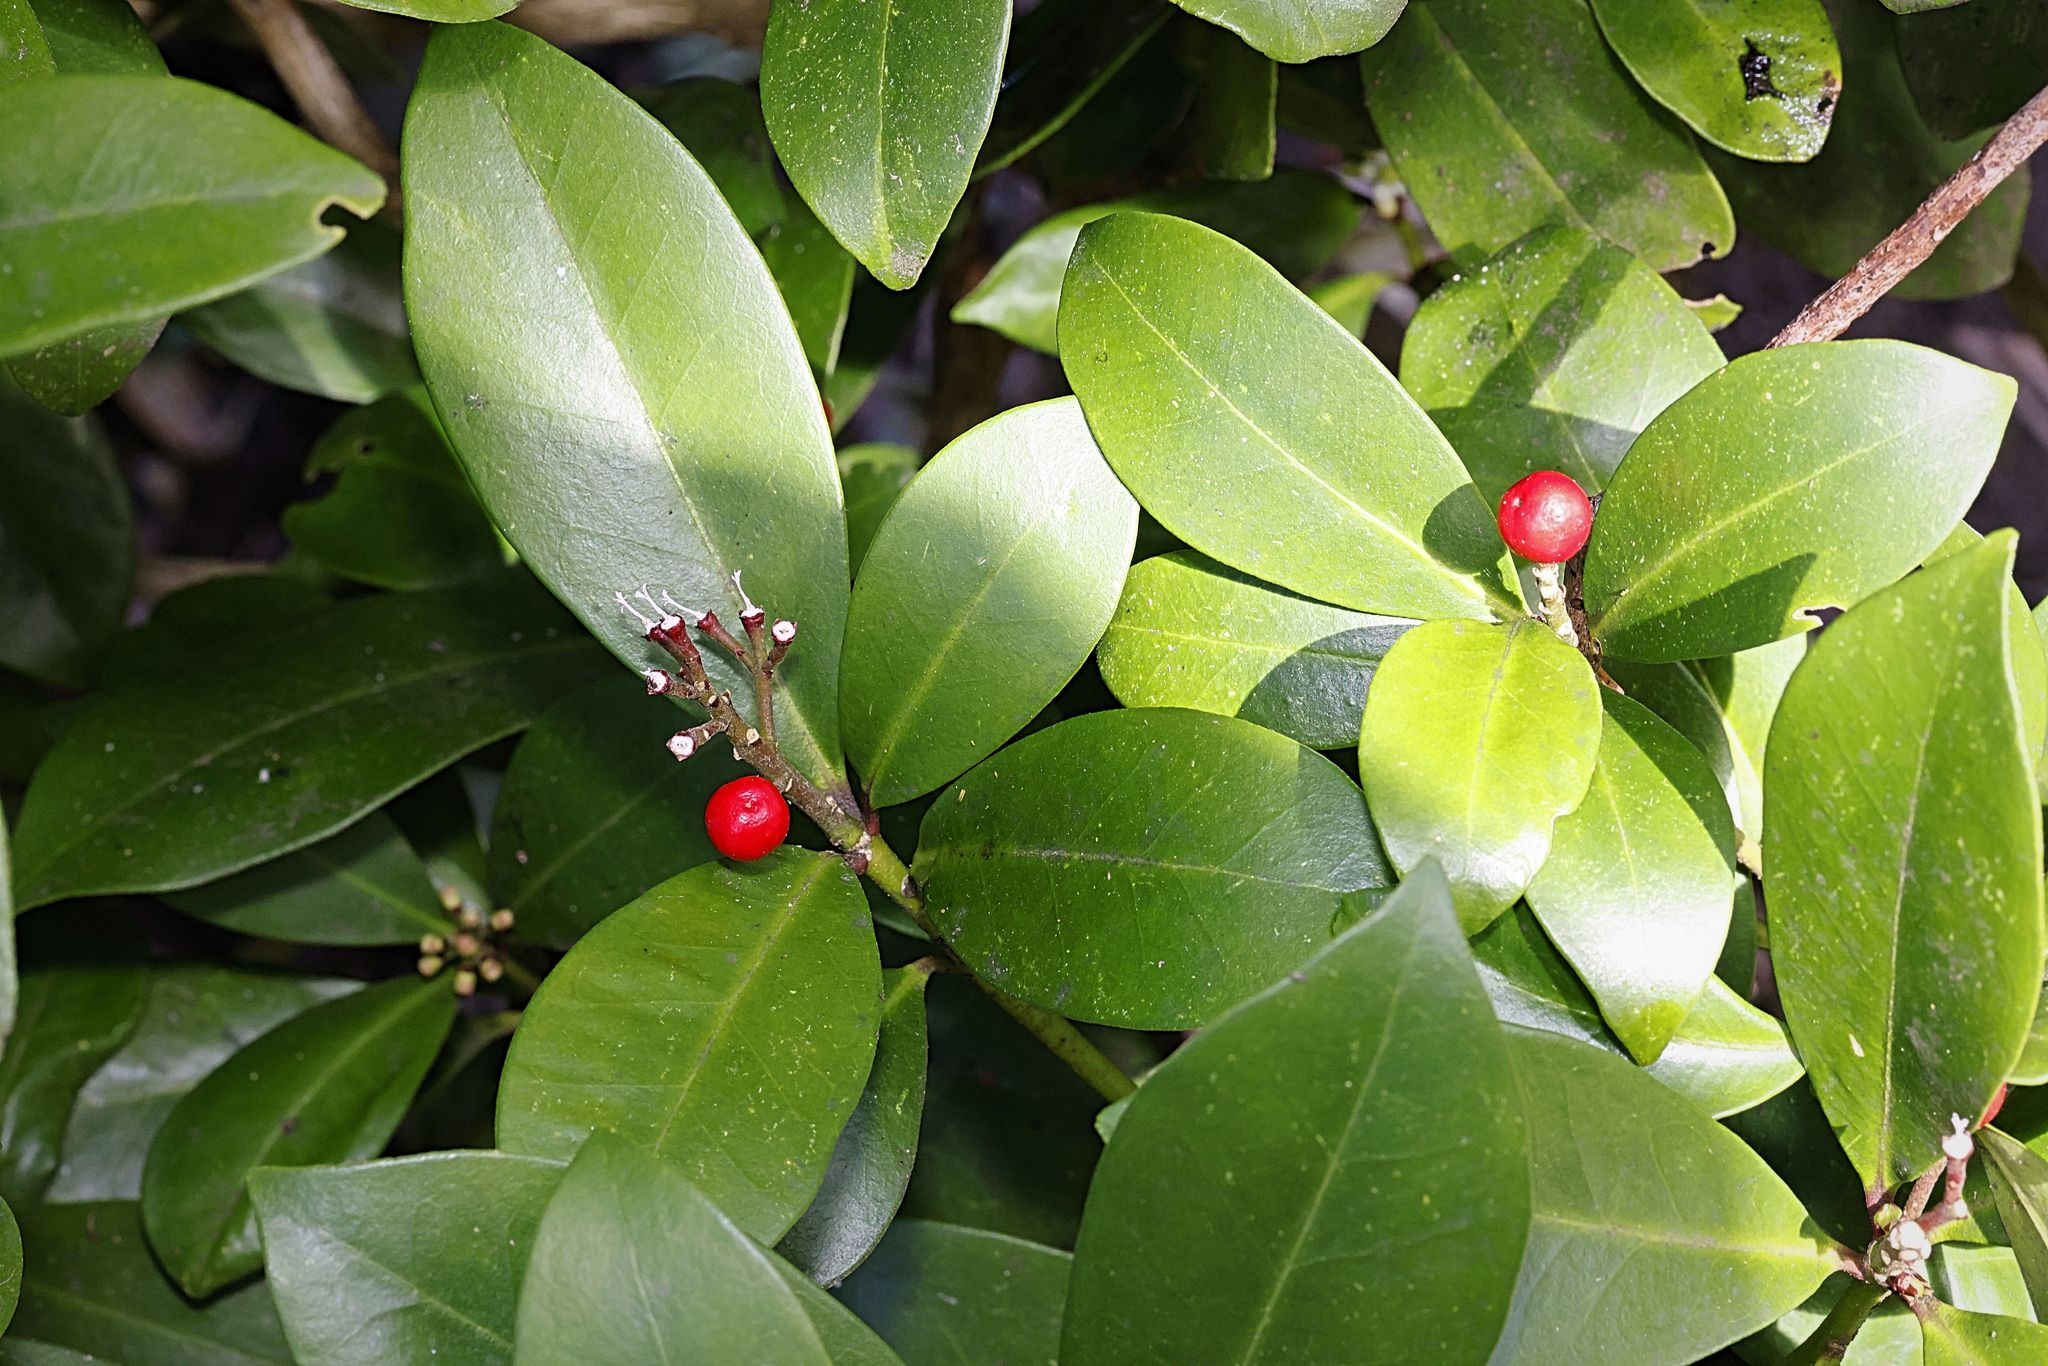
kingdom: Plantae
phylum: Tracheophyta
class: Magnoliopsida
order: Garryales
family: Garryaceae
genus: Aucuba
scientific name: Aucuba japonica
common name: Spotted-laurel
